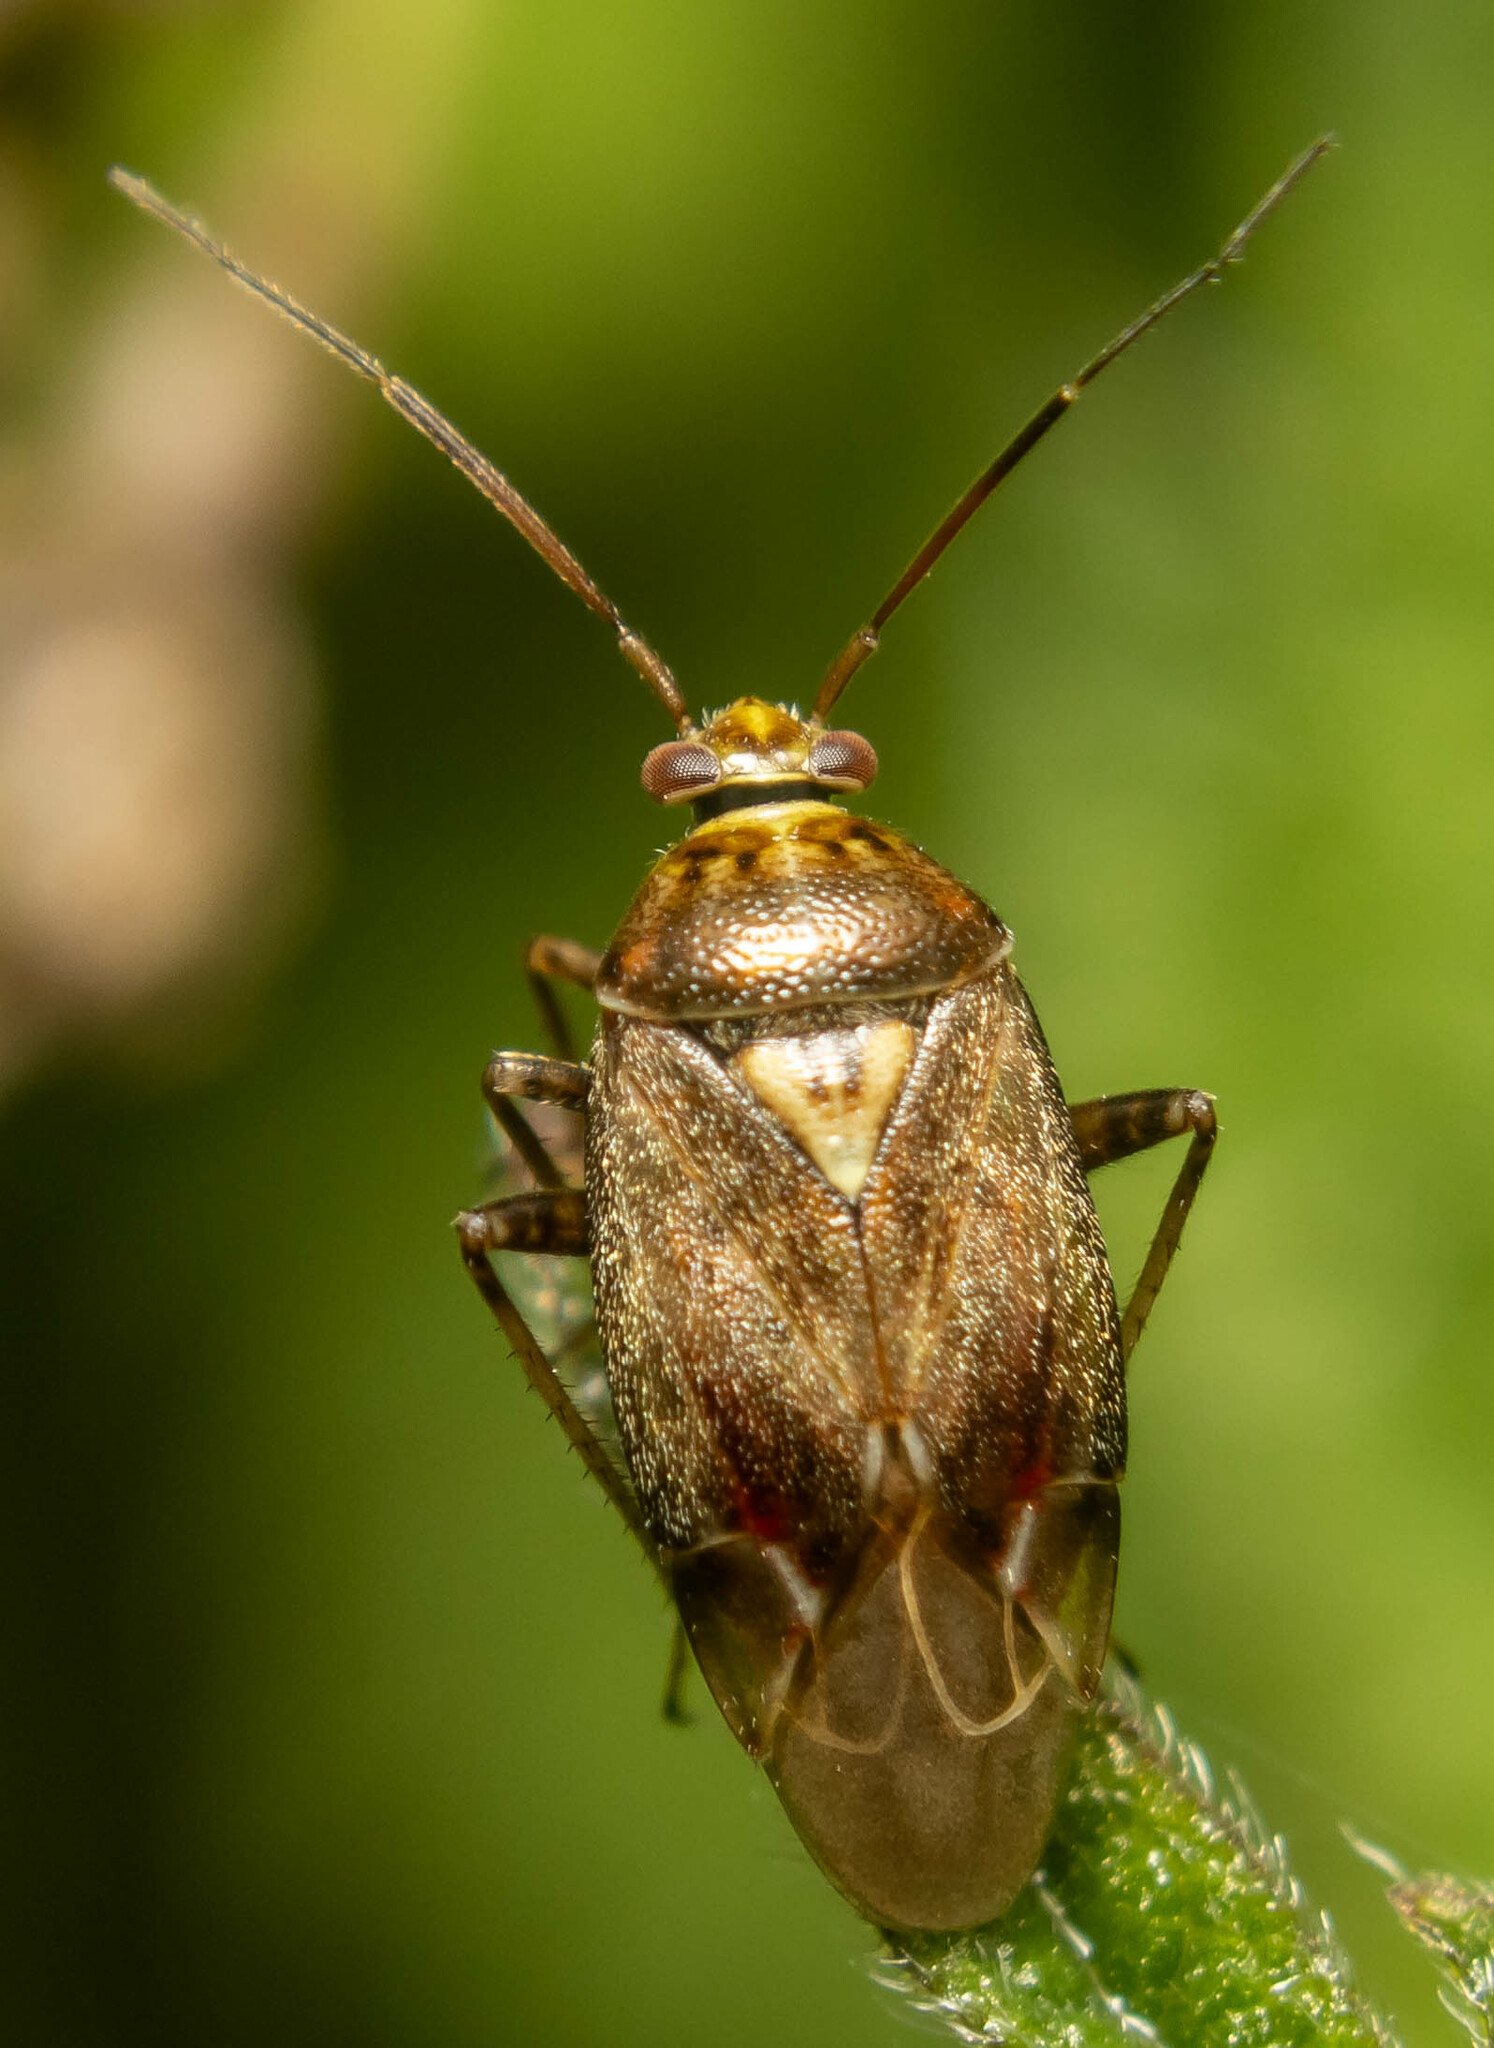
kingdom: Animalia
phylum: Arthropoda
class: Insecta
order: Hemiptera
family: Miridae
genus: Lygus
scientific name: Lygus rugulipennis
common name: European tarnished plant bug
